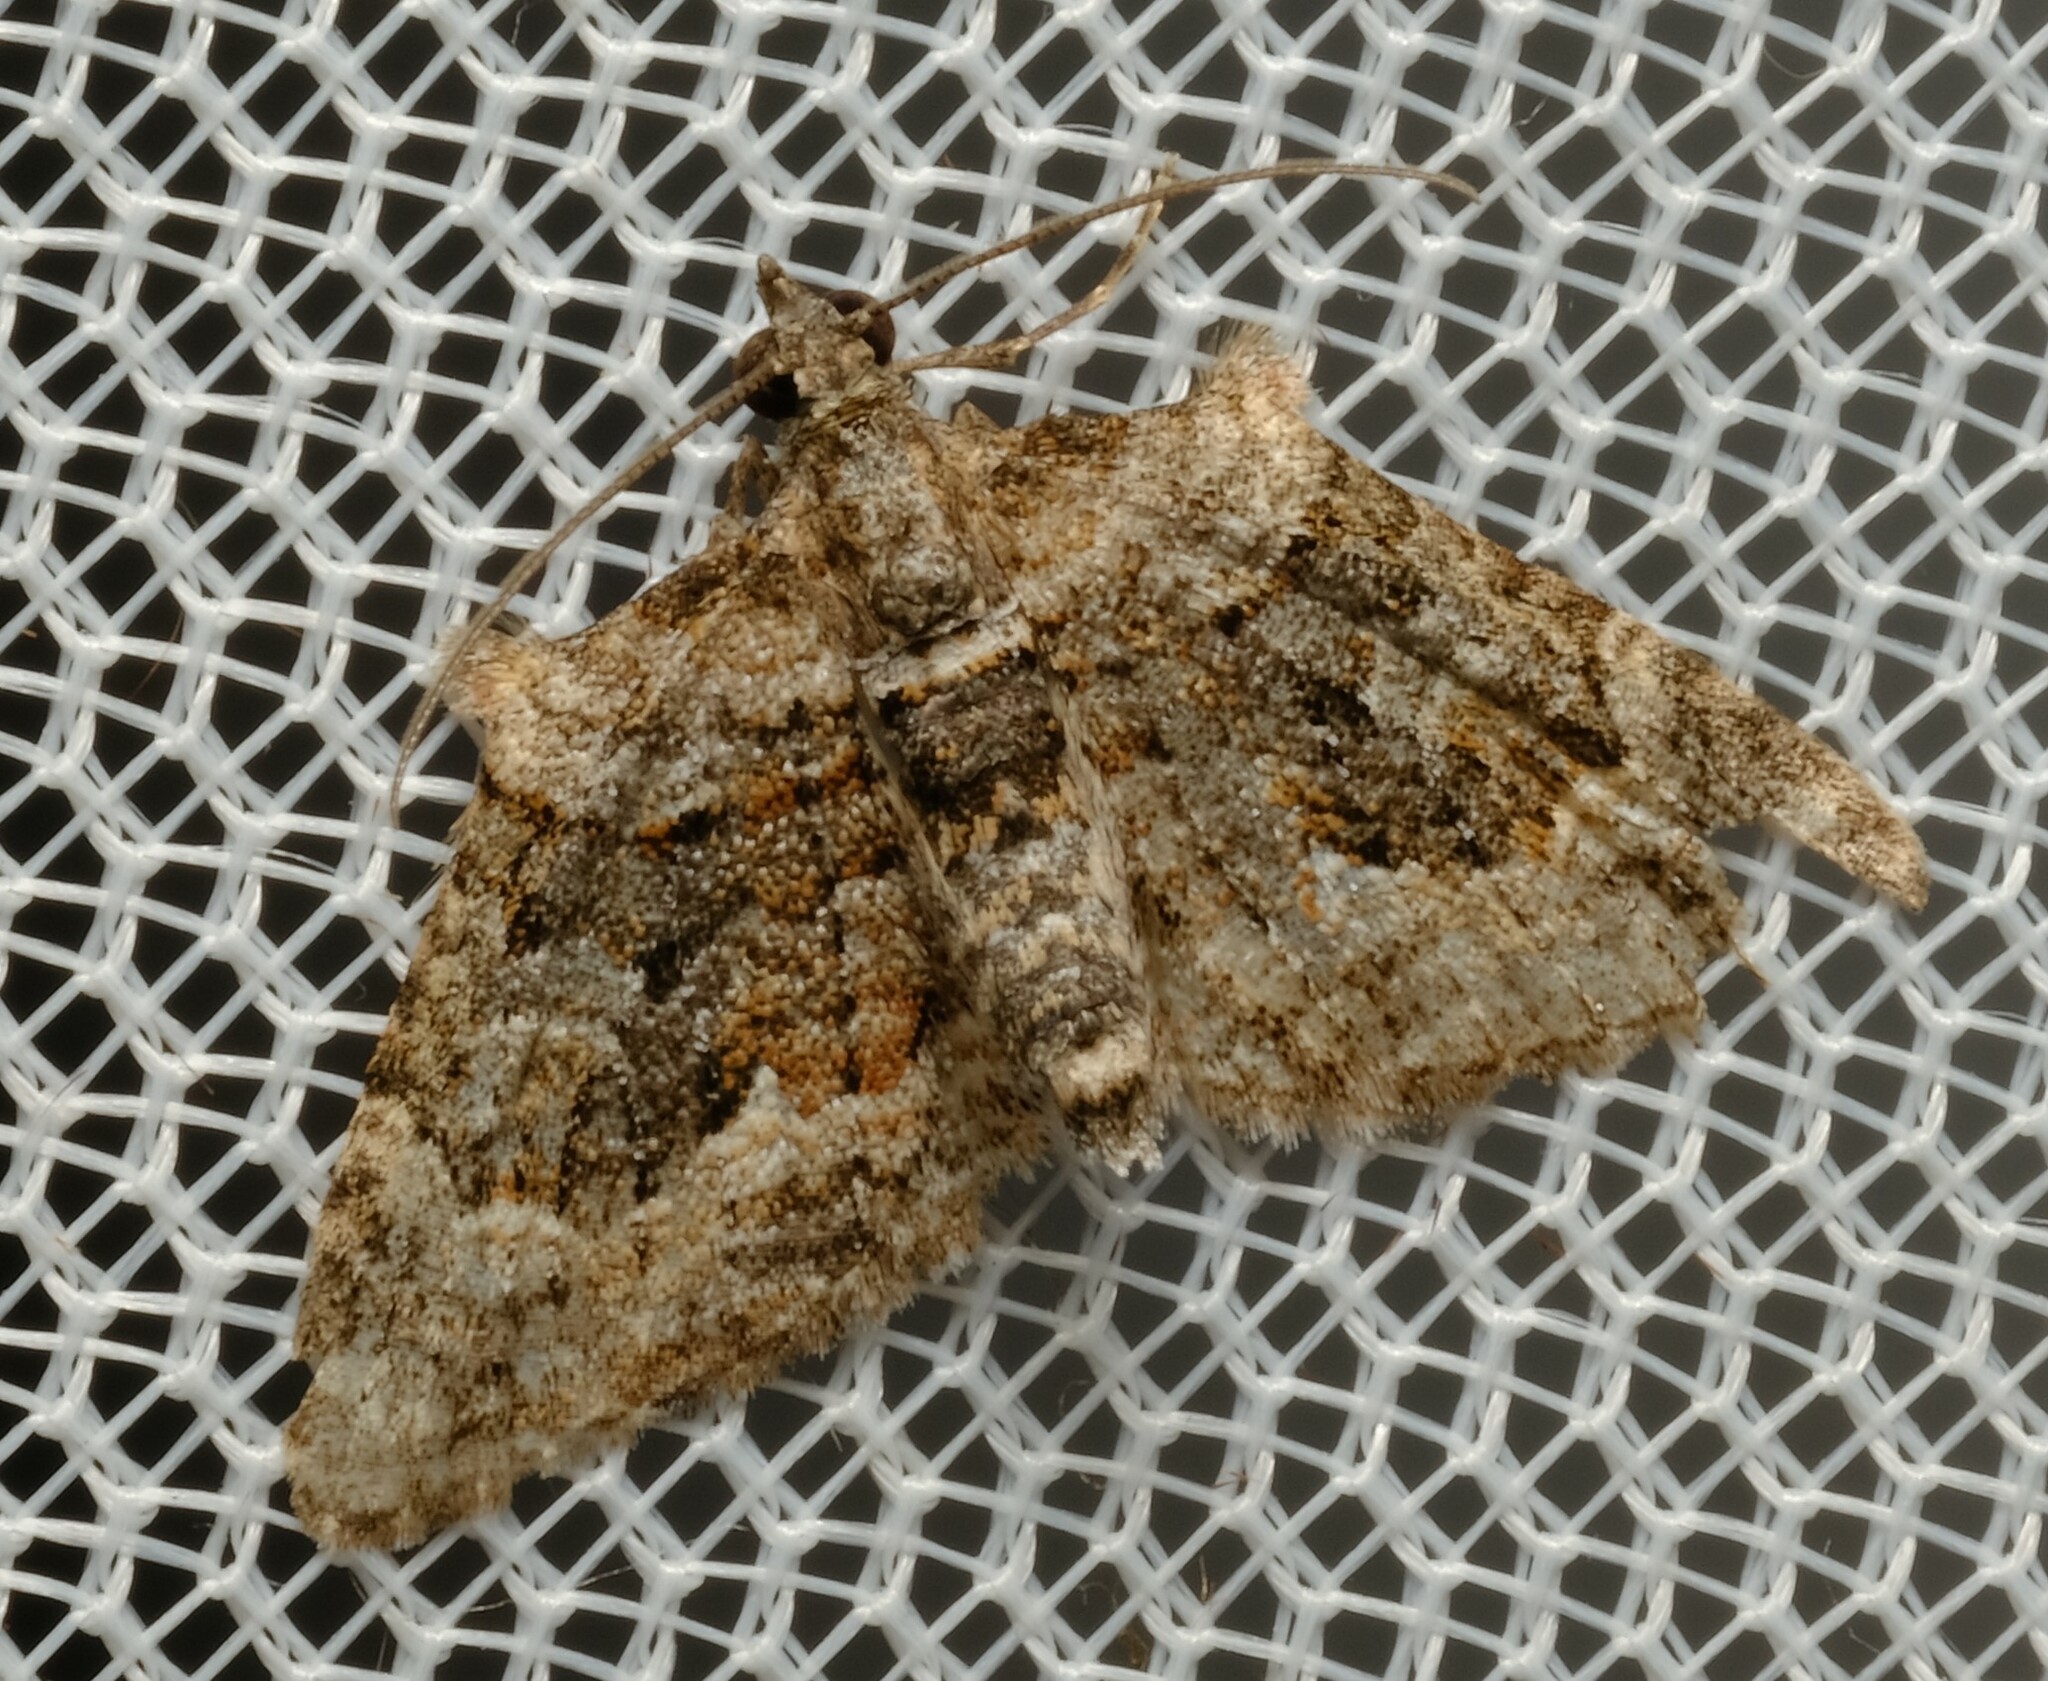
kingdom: Animalia
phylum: Arthropoda
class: Insecta
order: Lepidoptera
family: Geometridae
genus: Phrissogonus
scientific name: Phrissogonus laticostata
